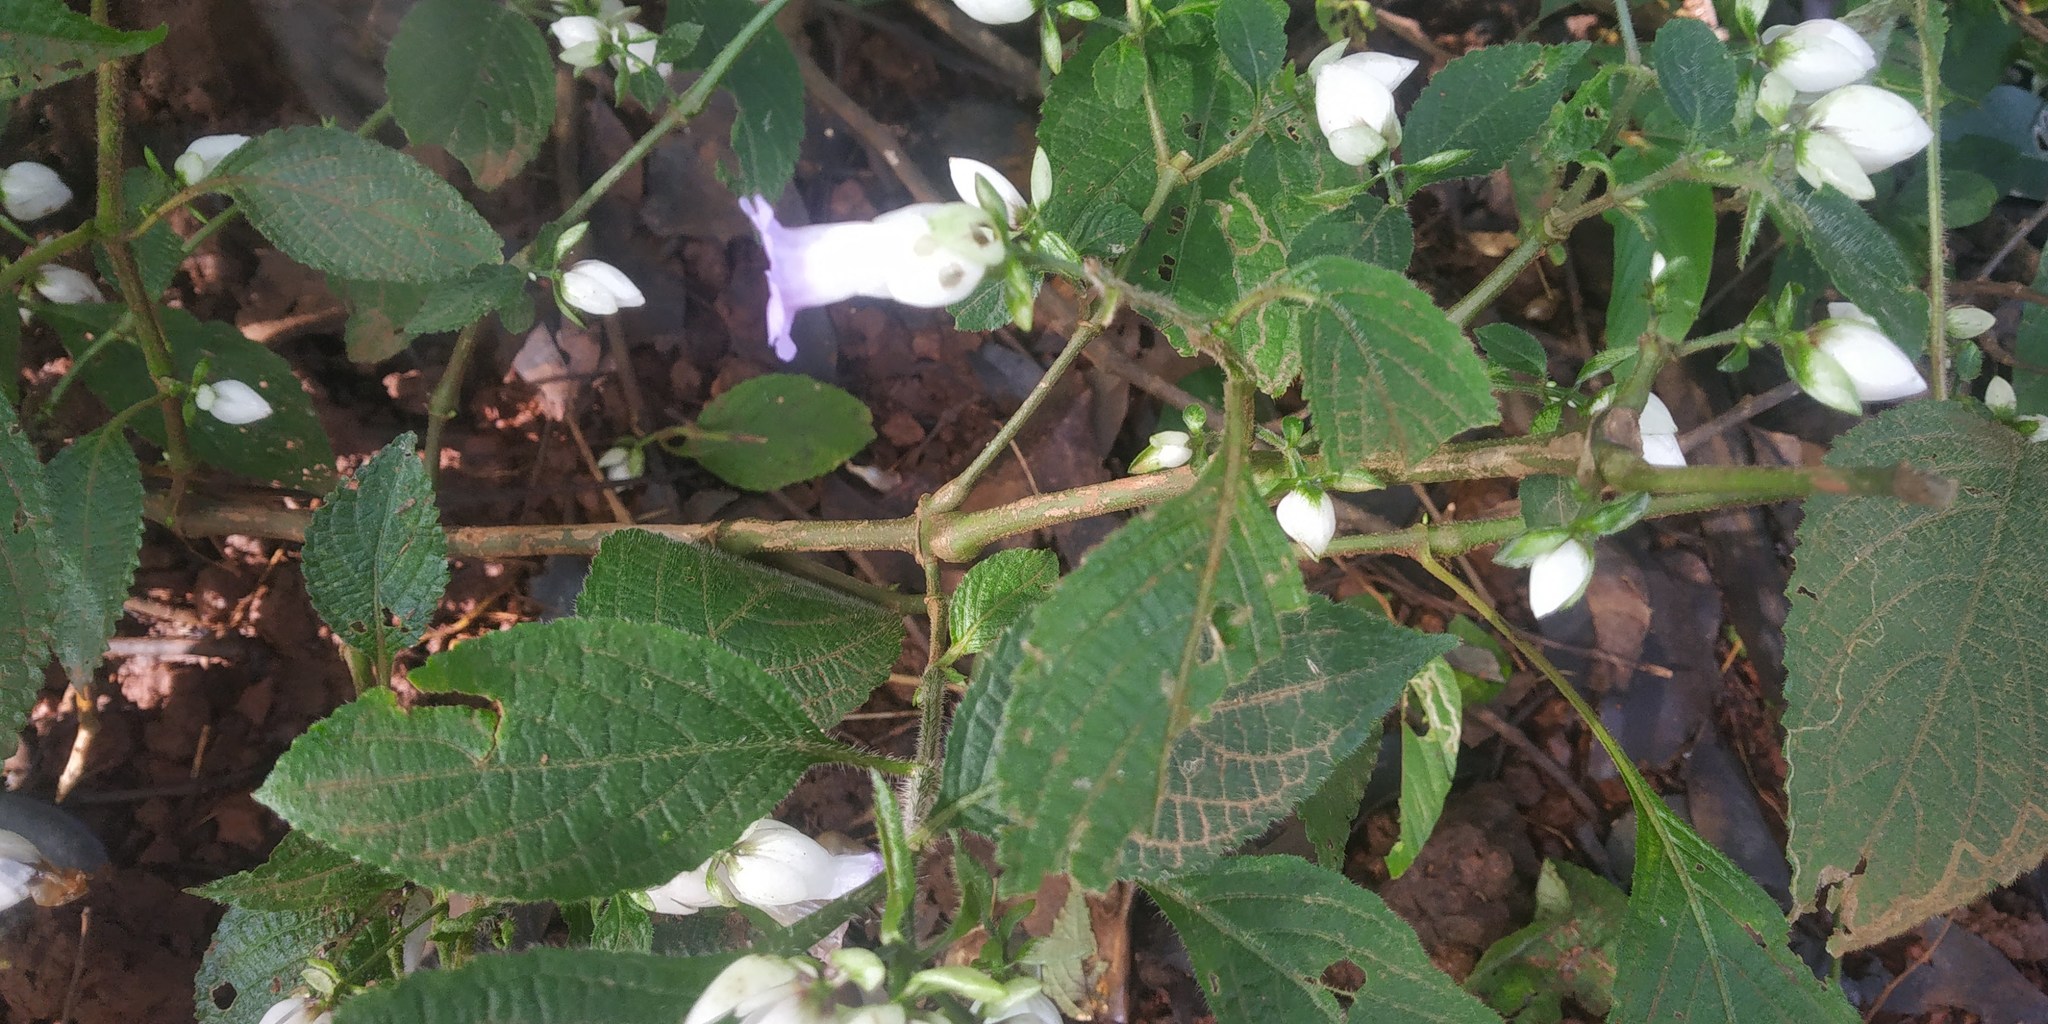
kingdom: Plantae
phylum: Tracheophyta
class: Magnoliopsida
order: Lamiales
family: Acanthaceae
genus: Strobilanthes
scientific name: Strobilanthes heyneana
